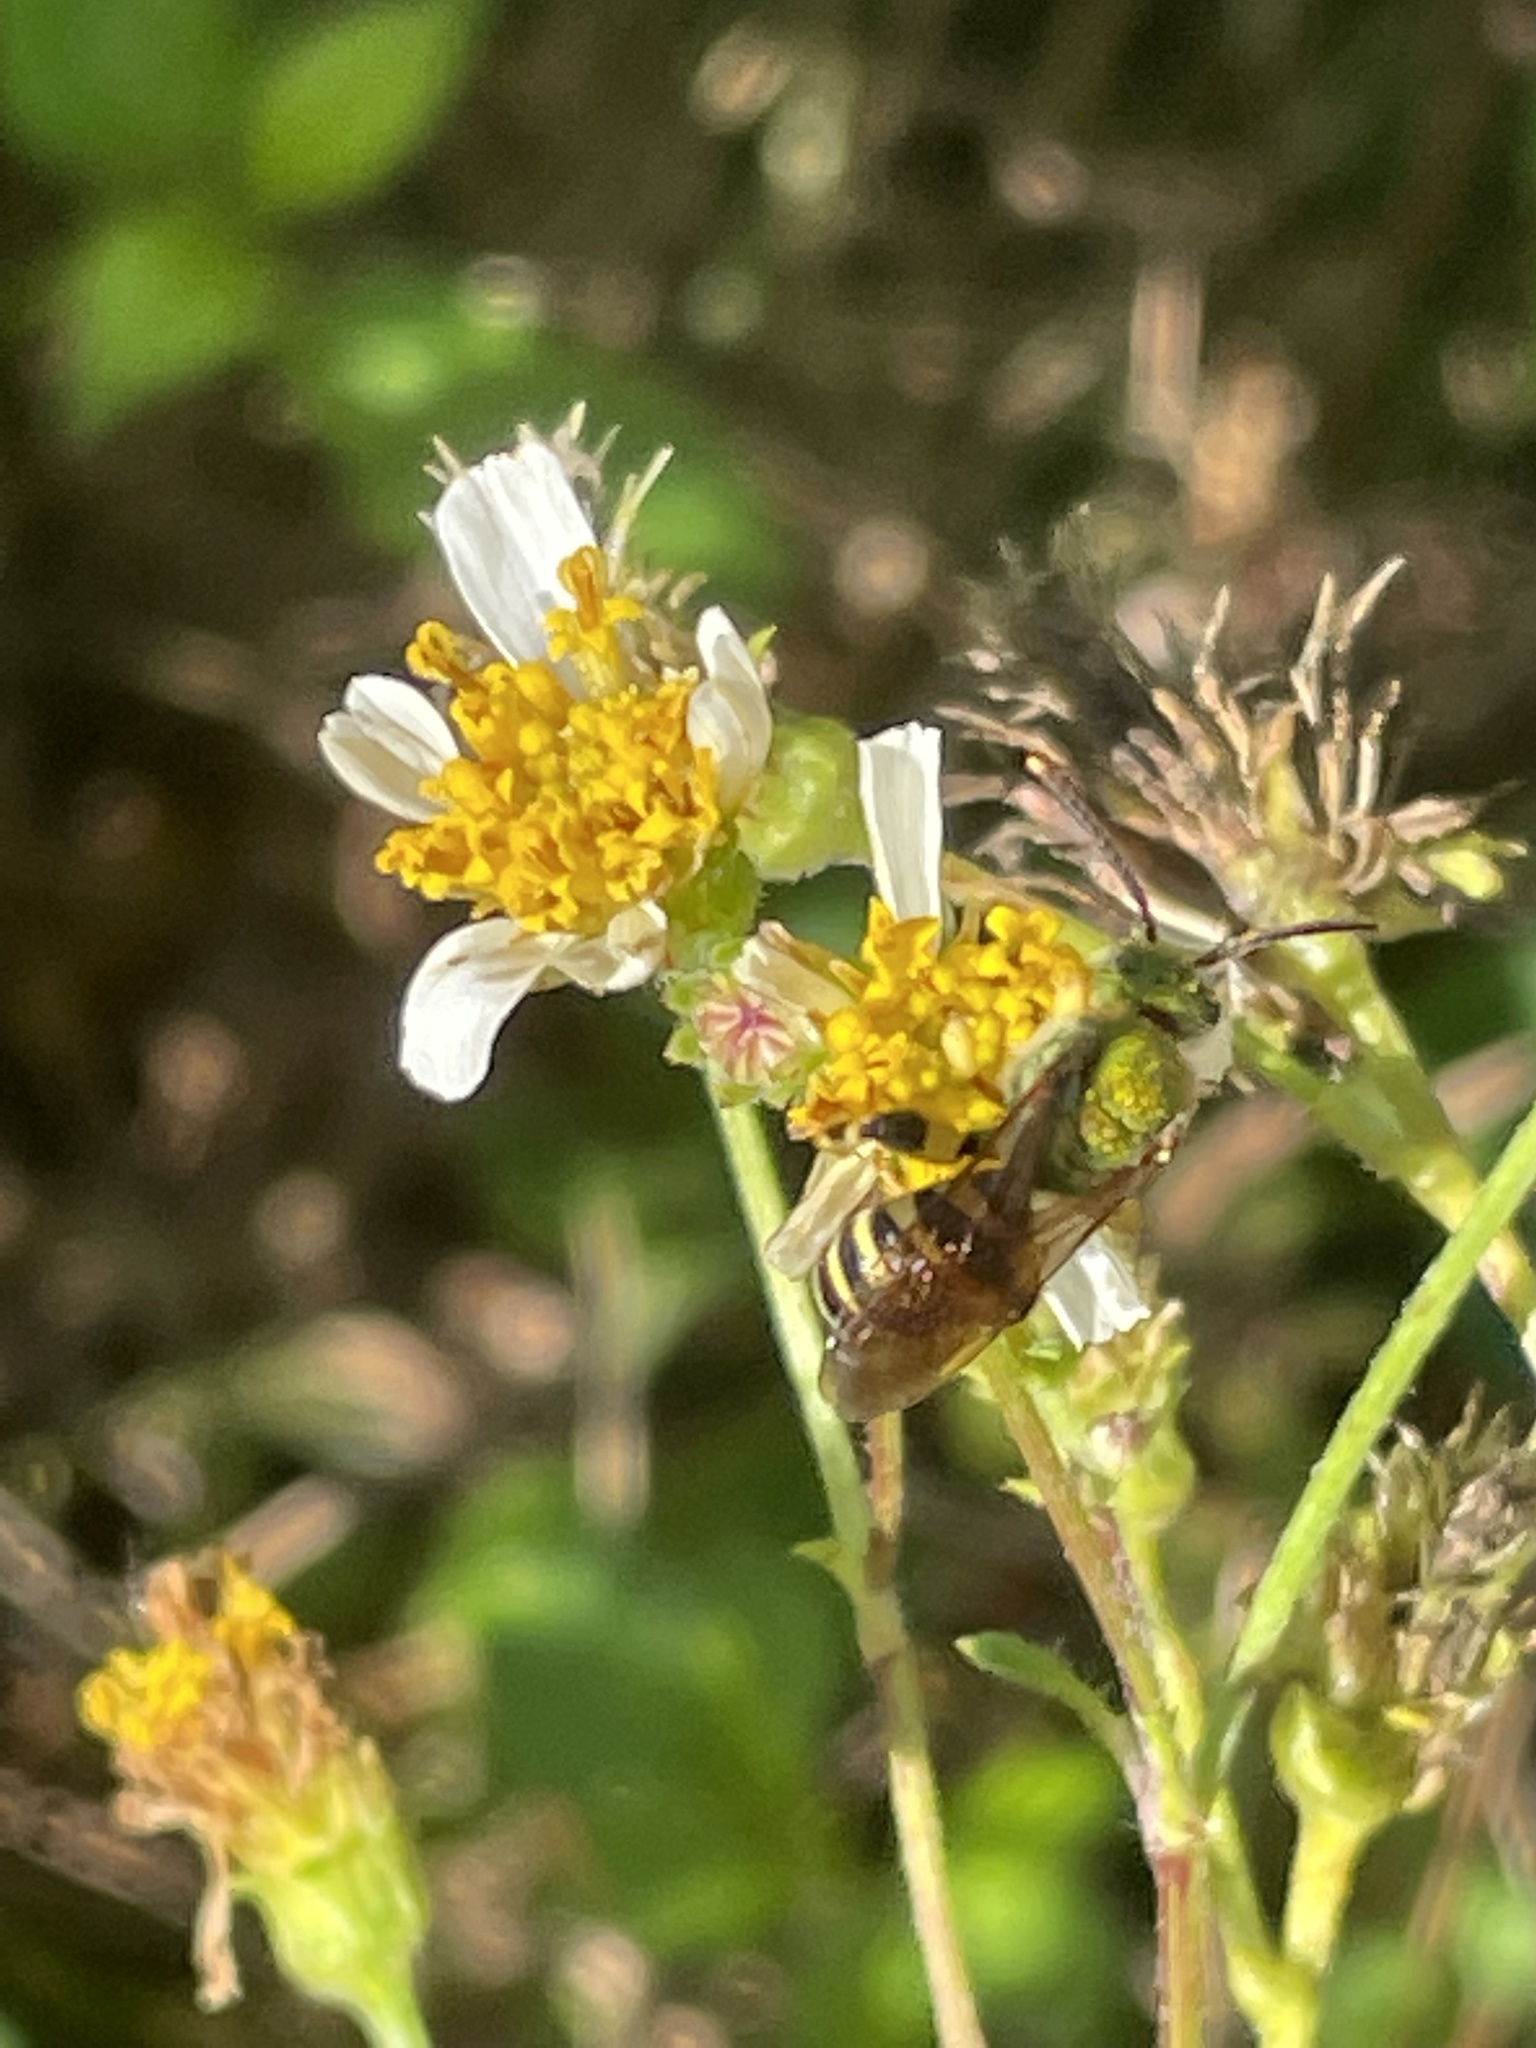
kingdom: Animalia
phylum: Arthropoda
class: Insecta
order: Hymenoptera
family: Halictidae
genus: Agapostemon
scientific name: Agapostemon splendens
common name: Brown-winged striped sweat bee
